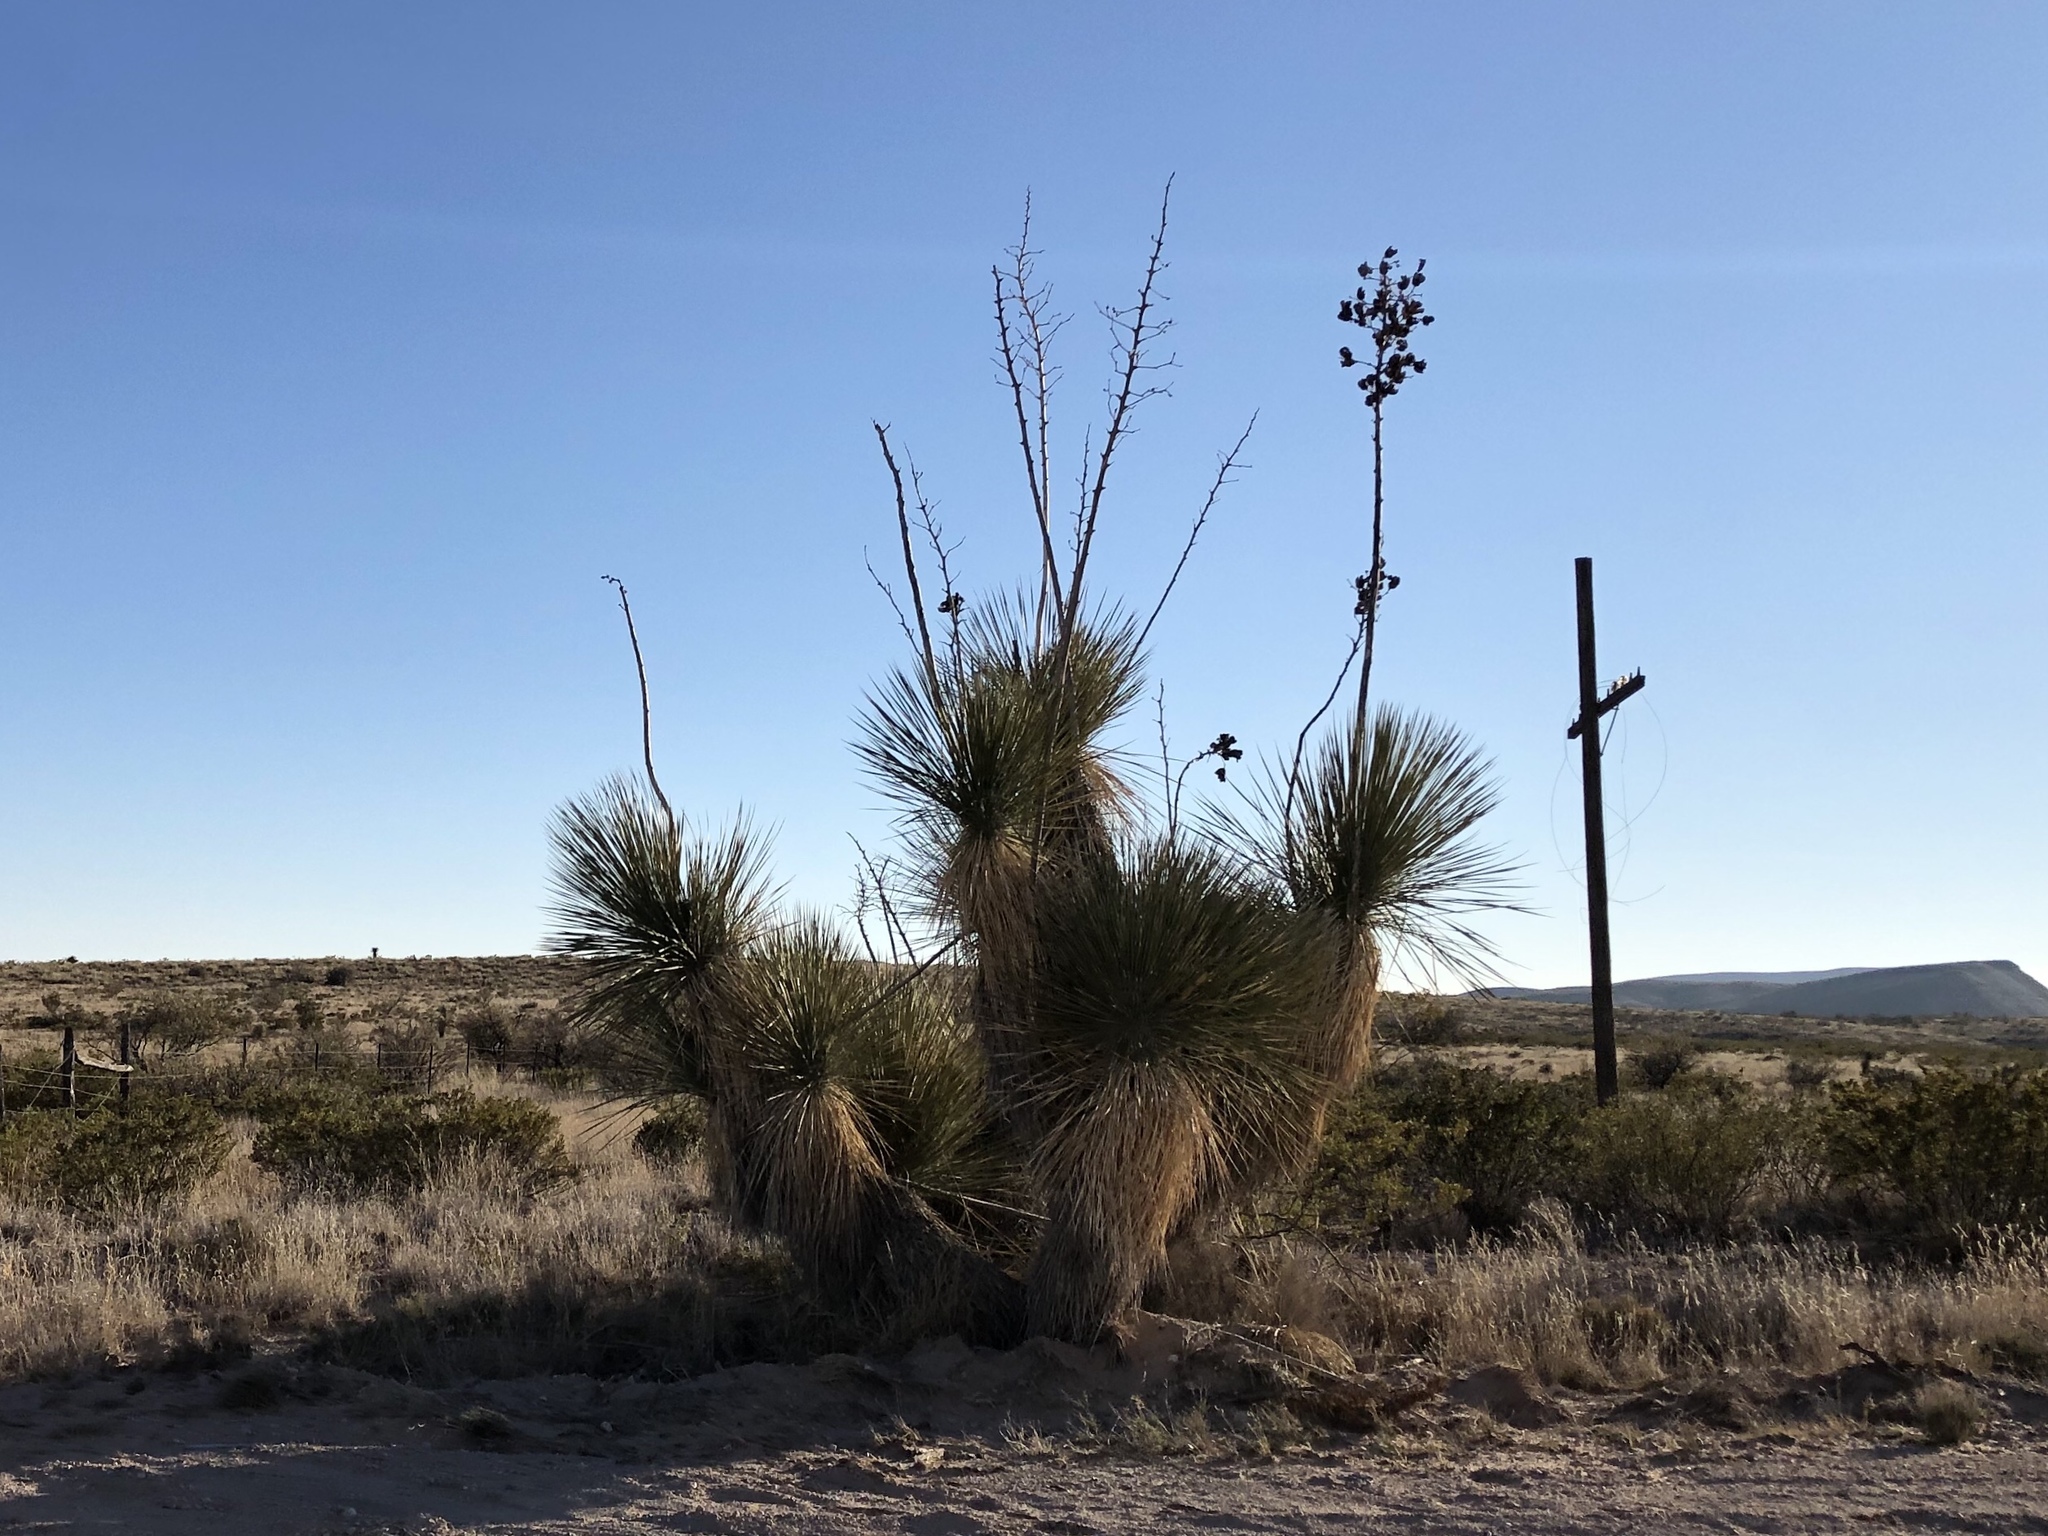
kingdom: Plantae
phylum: Tracheophyta
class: Liliopsida
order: Asparagales
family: Asparagaceae
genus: Yucca
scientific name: Yucca elata
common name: Palmella
